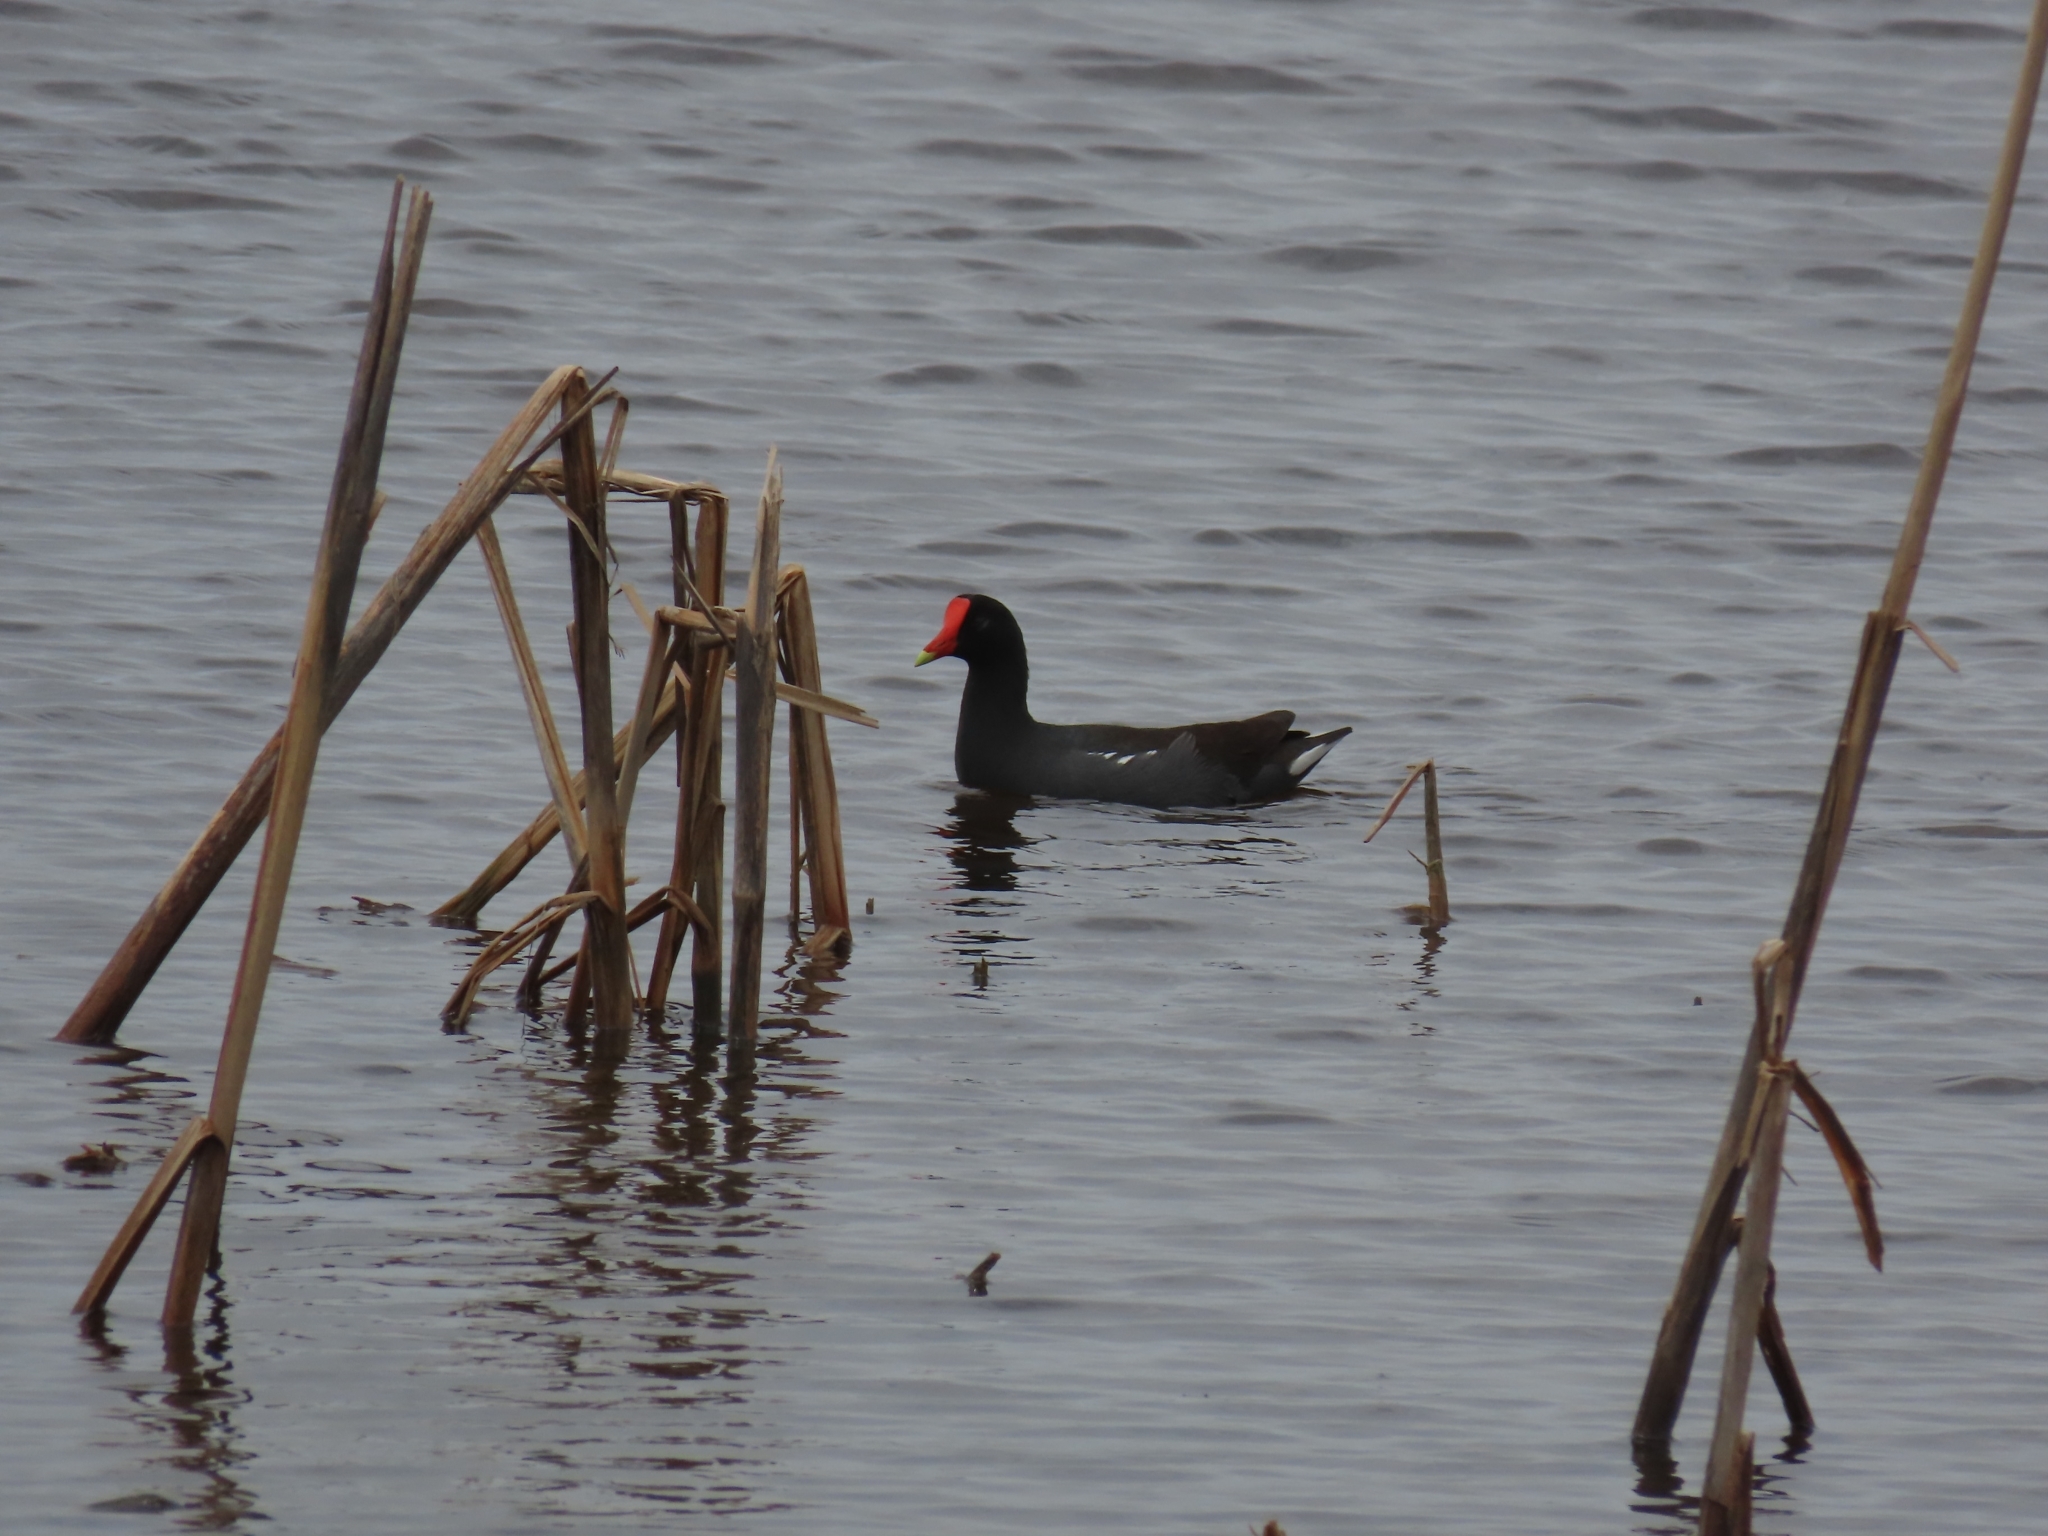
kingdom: Animalia
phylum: Chordata
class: Aves
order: Gruiformes
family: Rallidae
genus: Gallinula
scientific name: Gallinula chloropus
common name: Common moorhen
